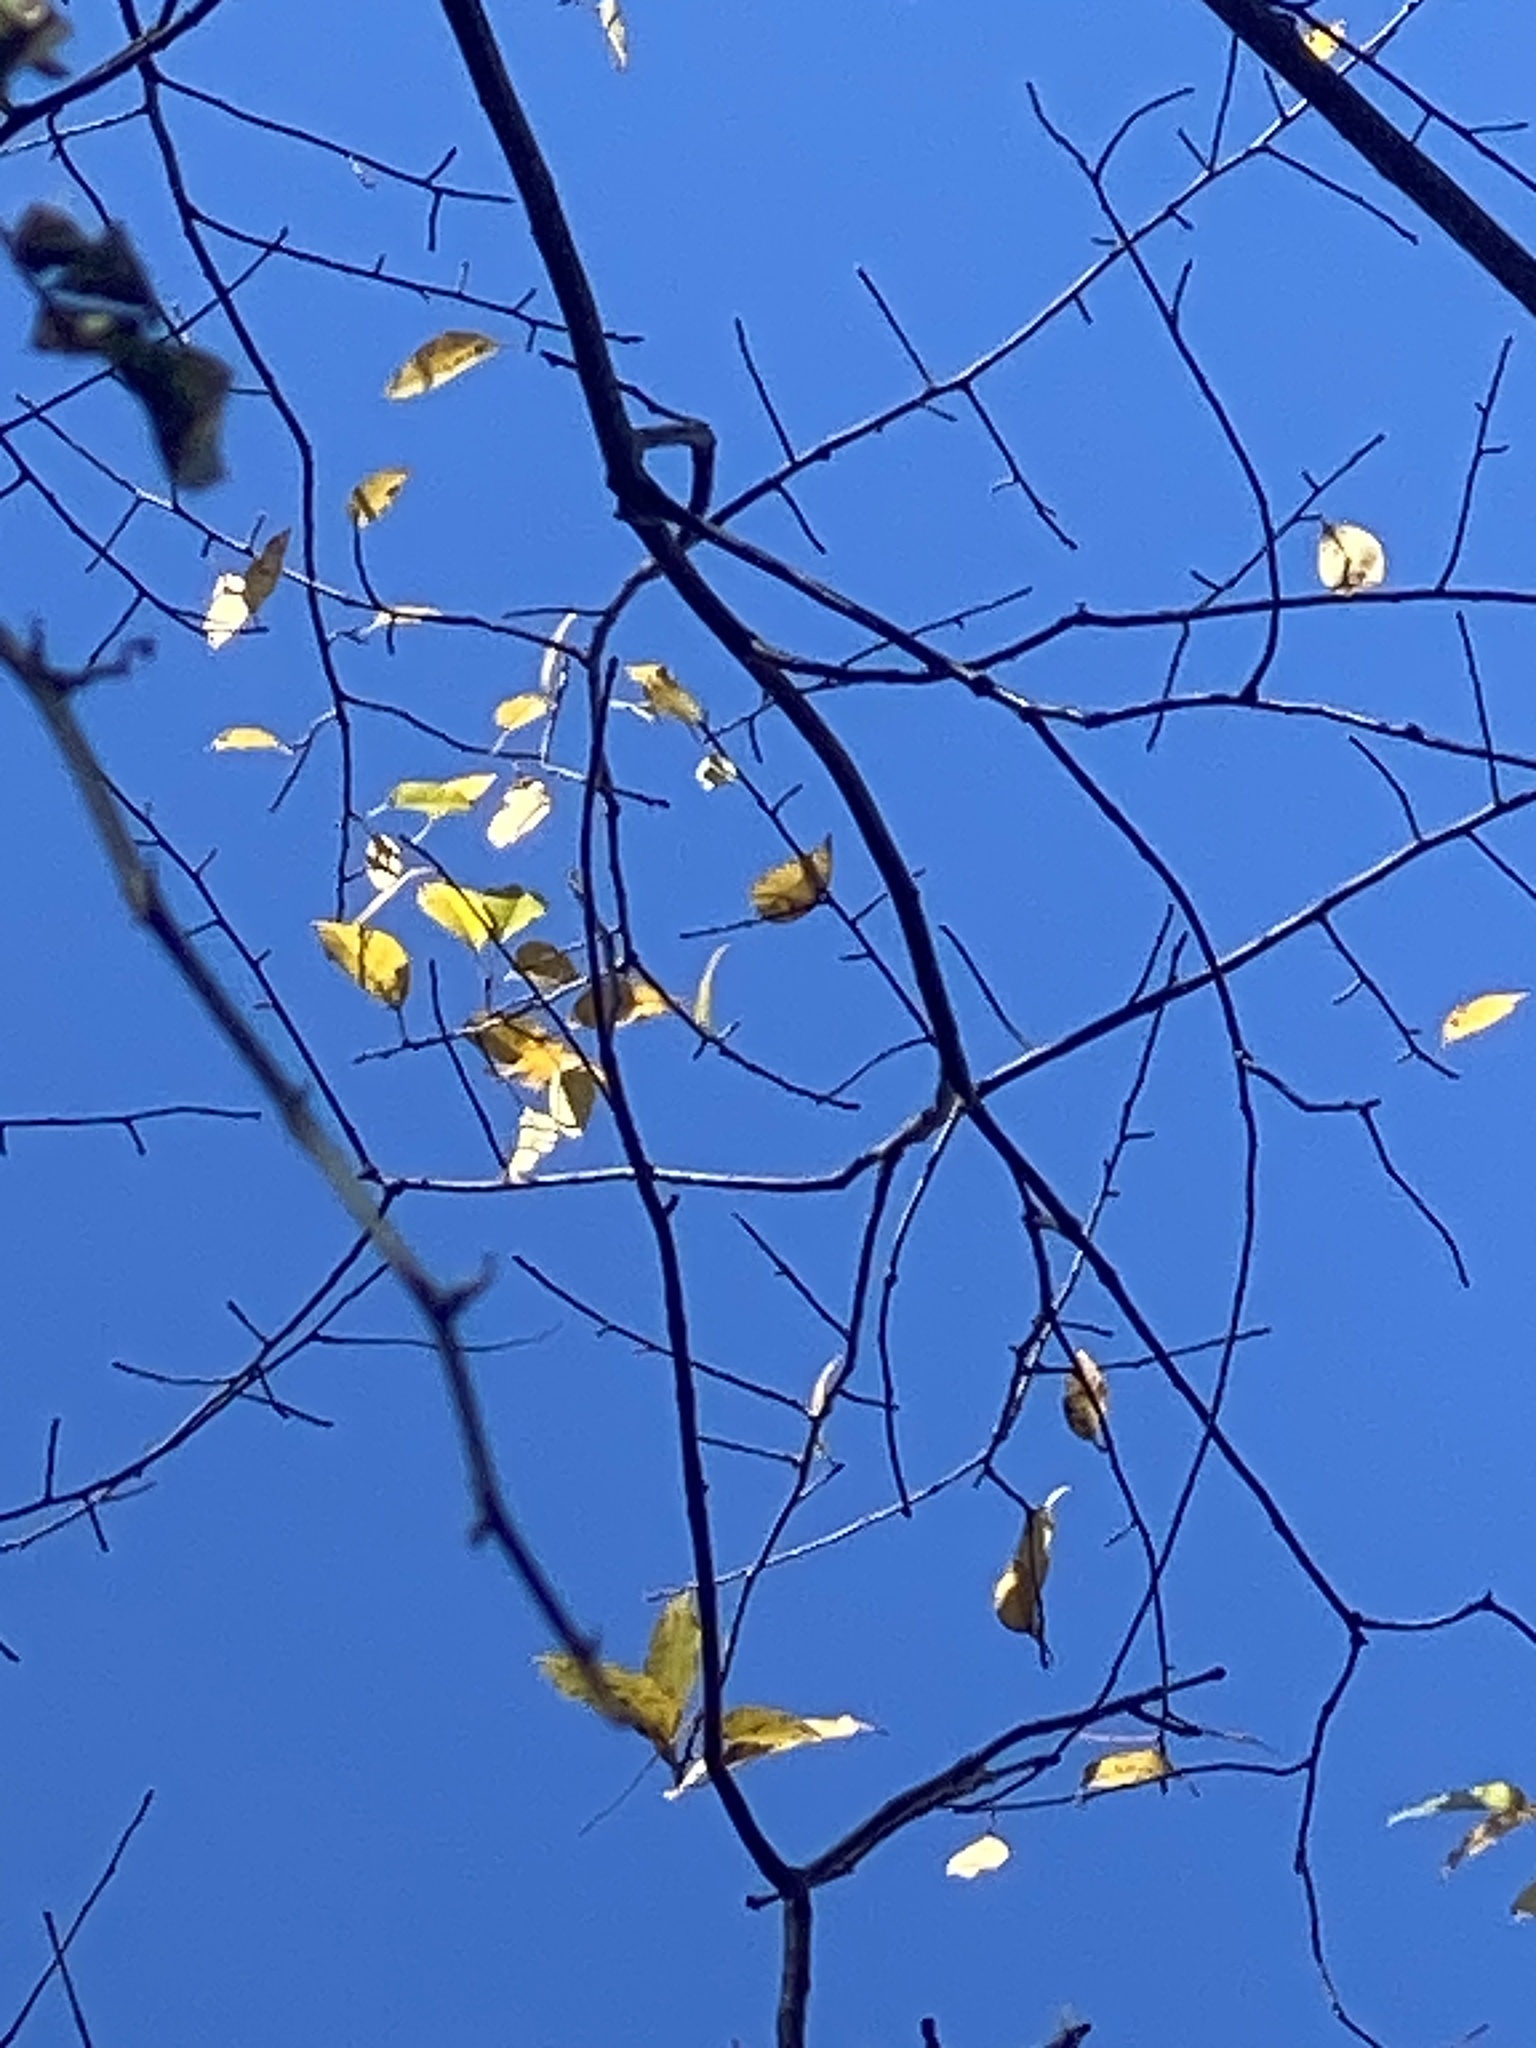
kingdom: Plantae
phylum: Tracheophyta
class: Magnoliopsida
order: Rosales
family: Rosaceae
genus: Prunus
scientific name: Prunus serotina
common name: Black cherry
